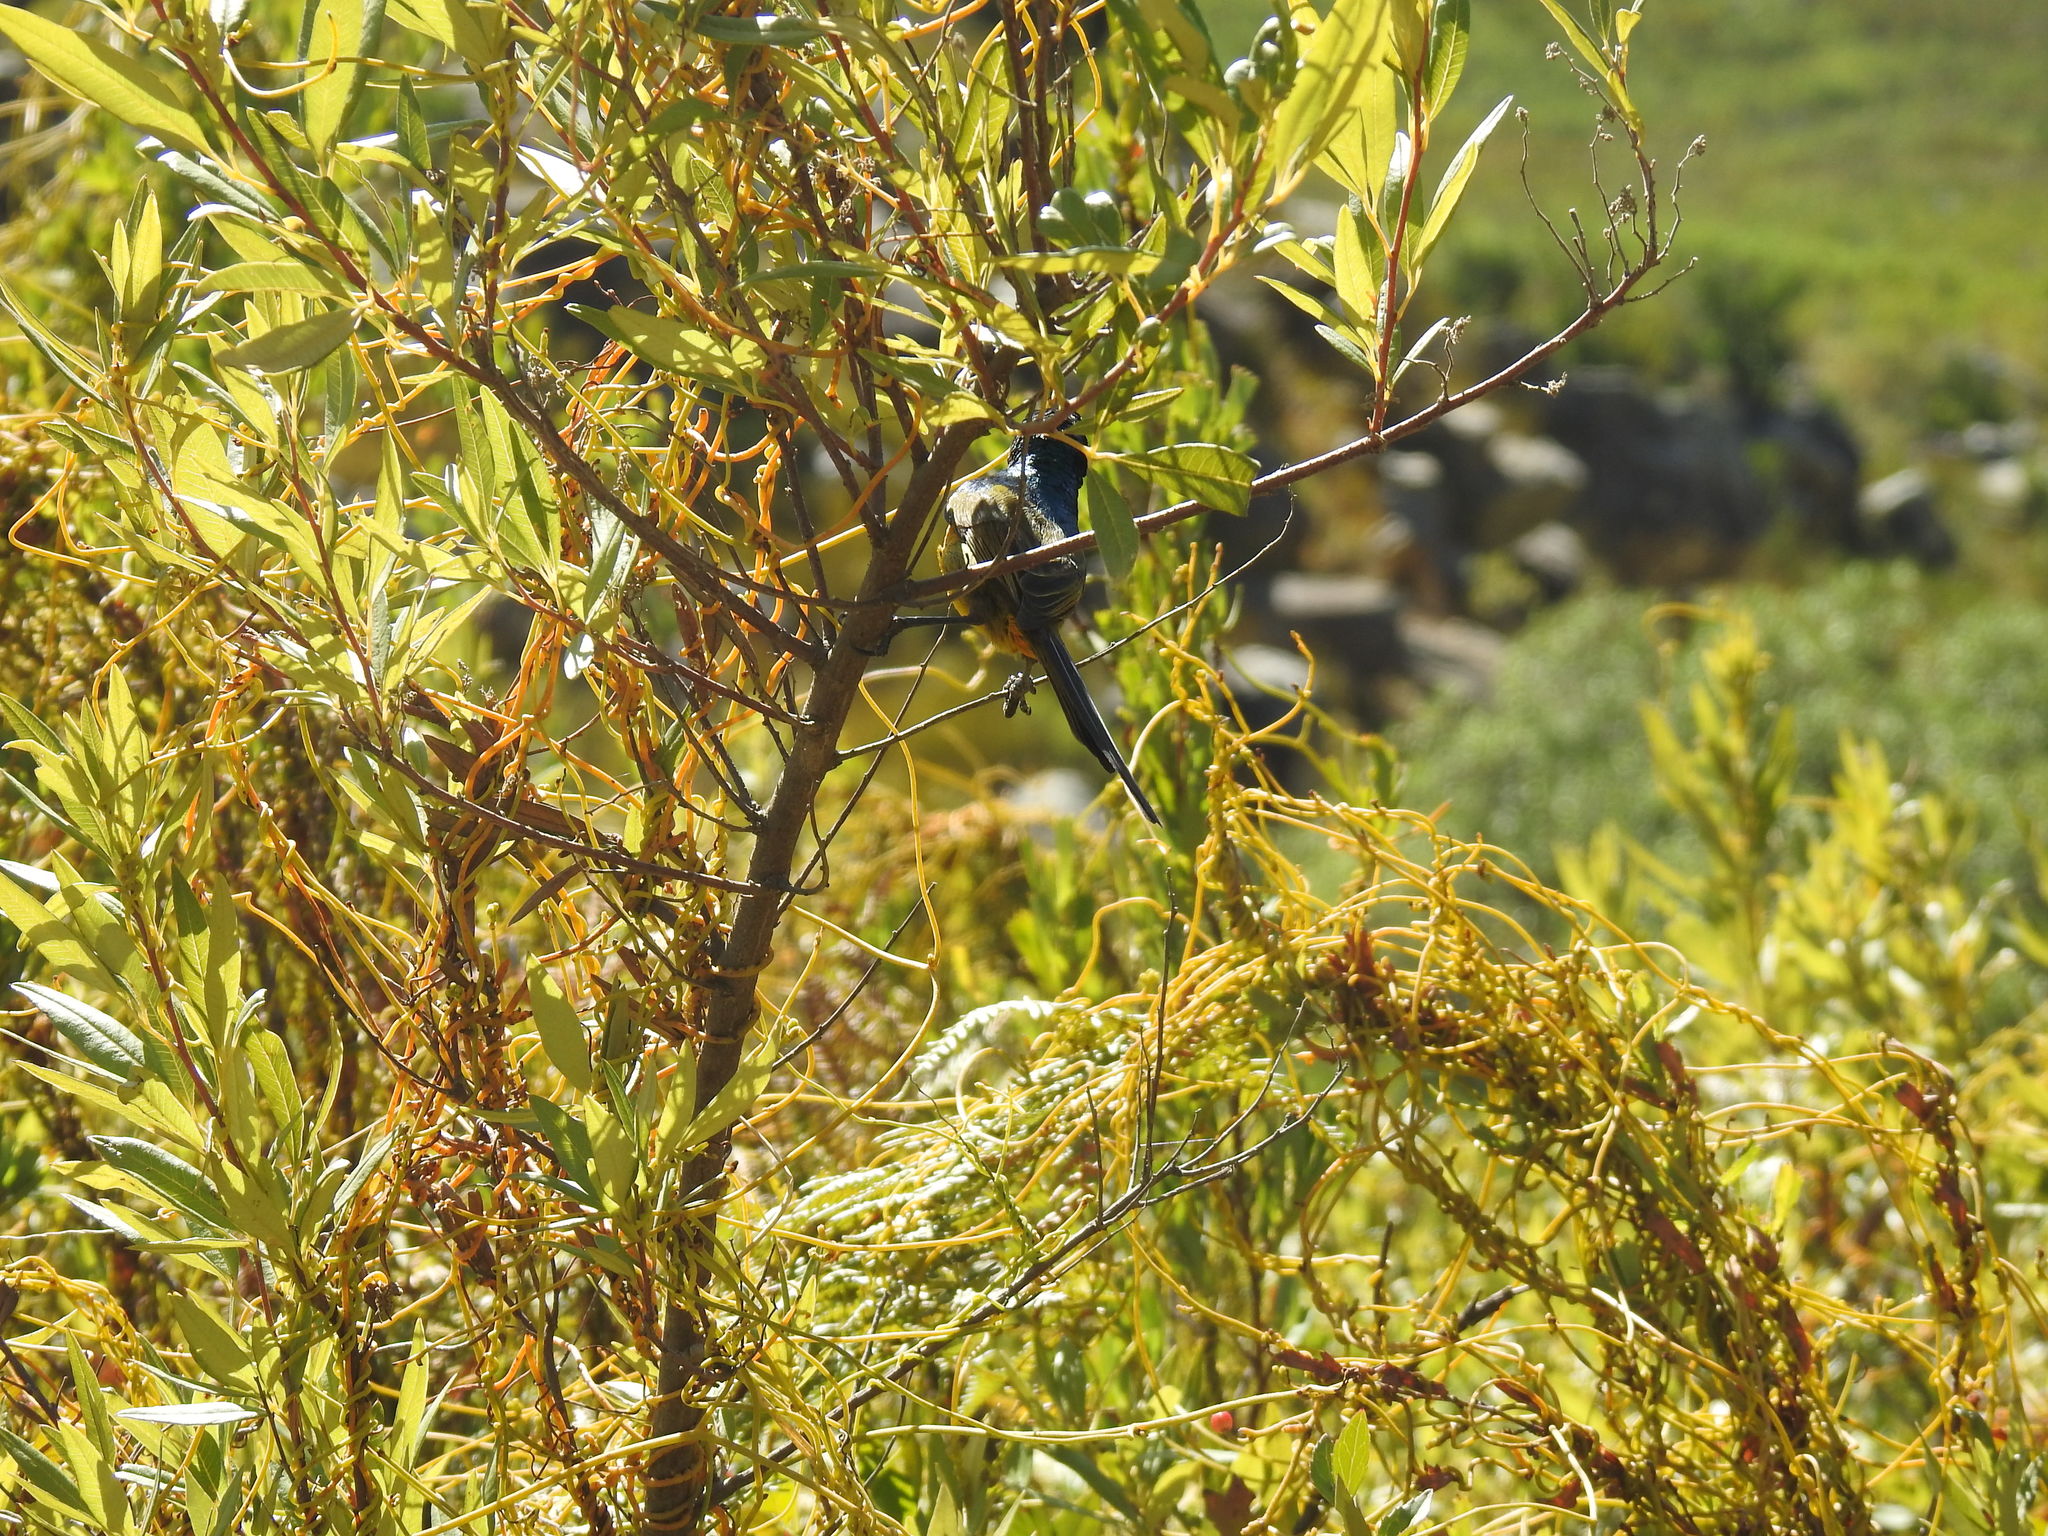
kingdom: Animalia
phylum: Chordata
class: Aves
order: Passeriformes
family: Nectariniidae
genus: Anthobaphes
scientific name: Anthobaphes violacea
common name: Orange-breasted sunbird
